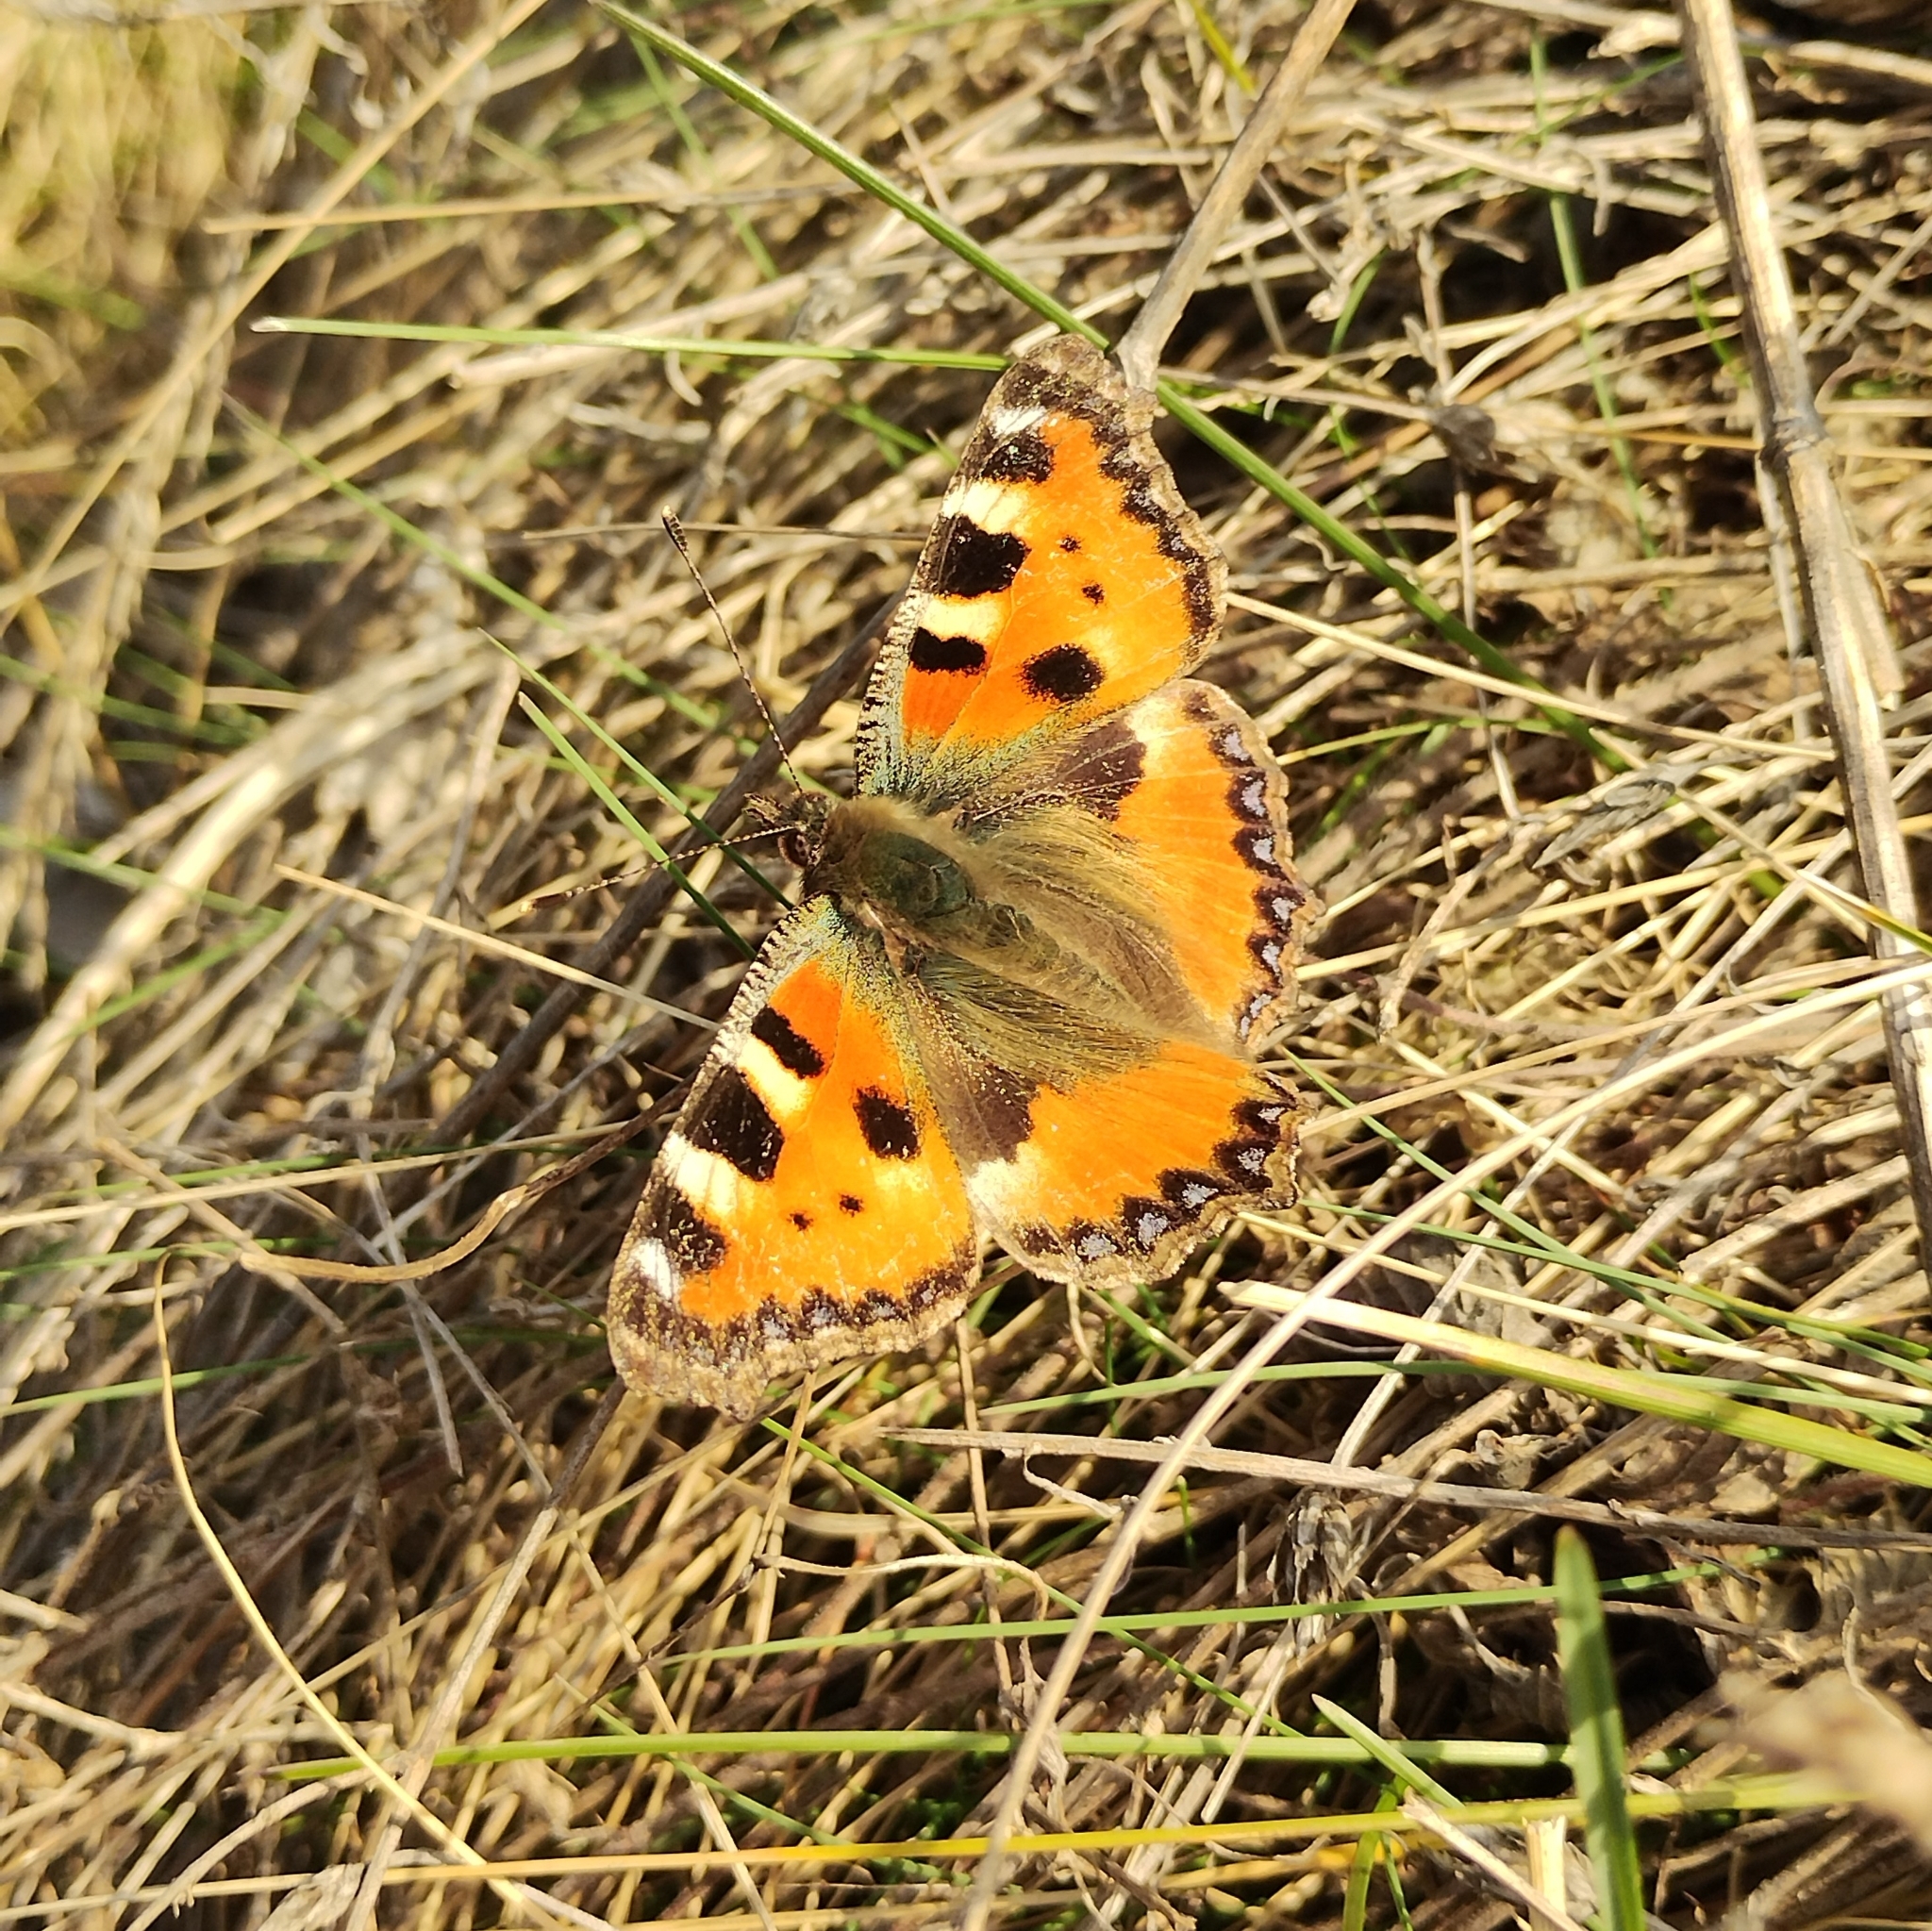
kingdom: Animalia
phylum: Arthropoda
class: Insecta
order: Lepidoptera
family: Nymphalidae
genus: Aglais
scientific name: Aglais urticae
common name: Small tortoiseshell
